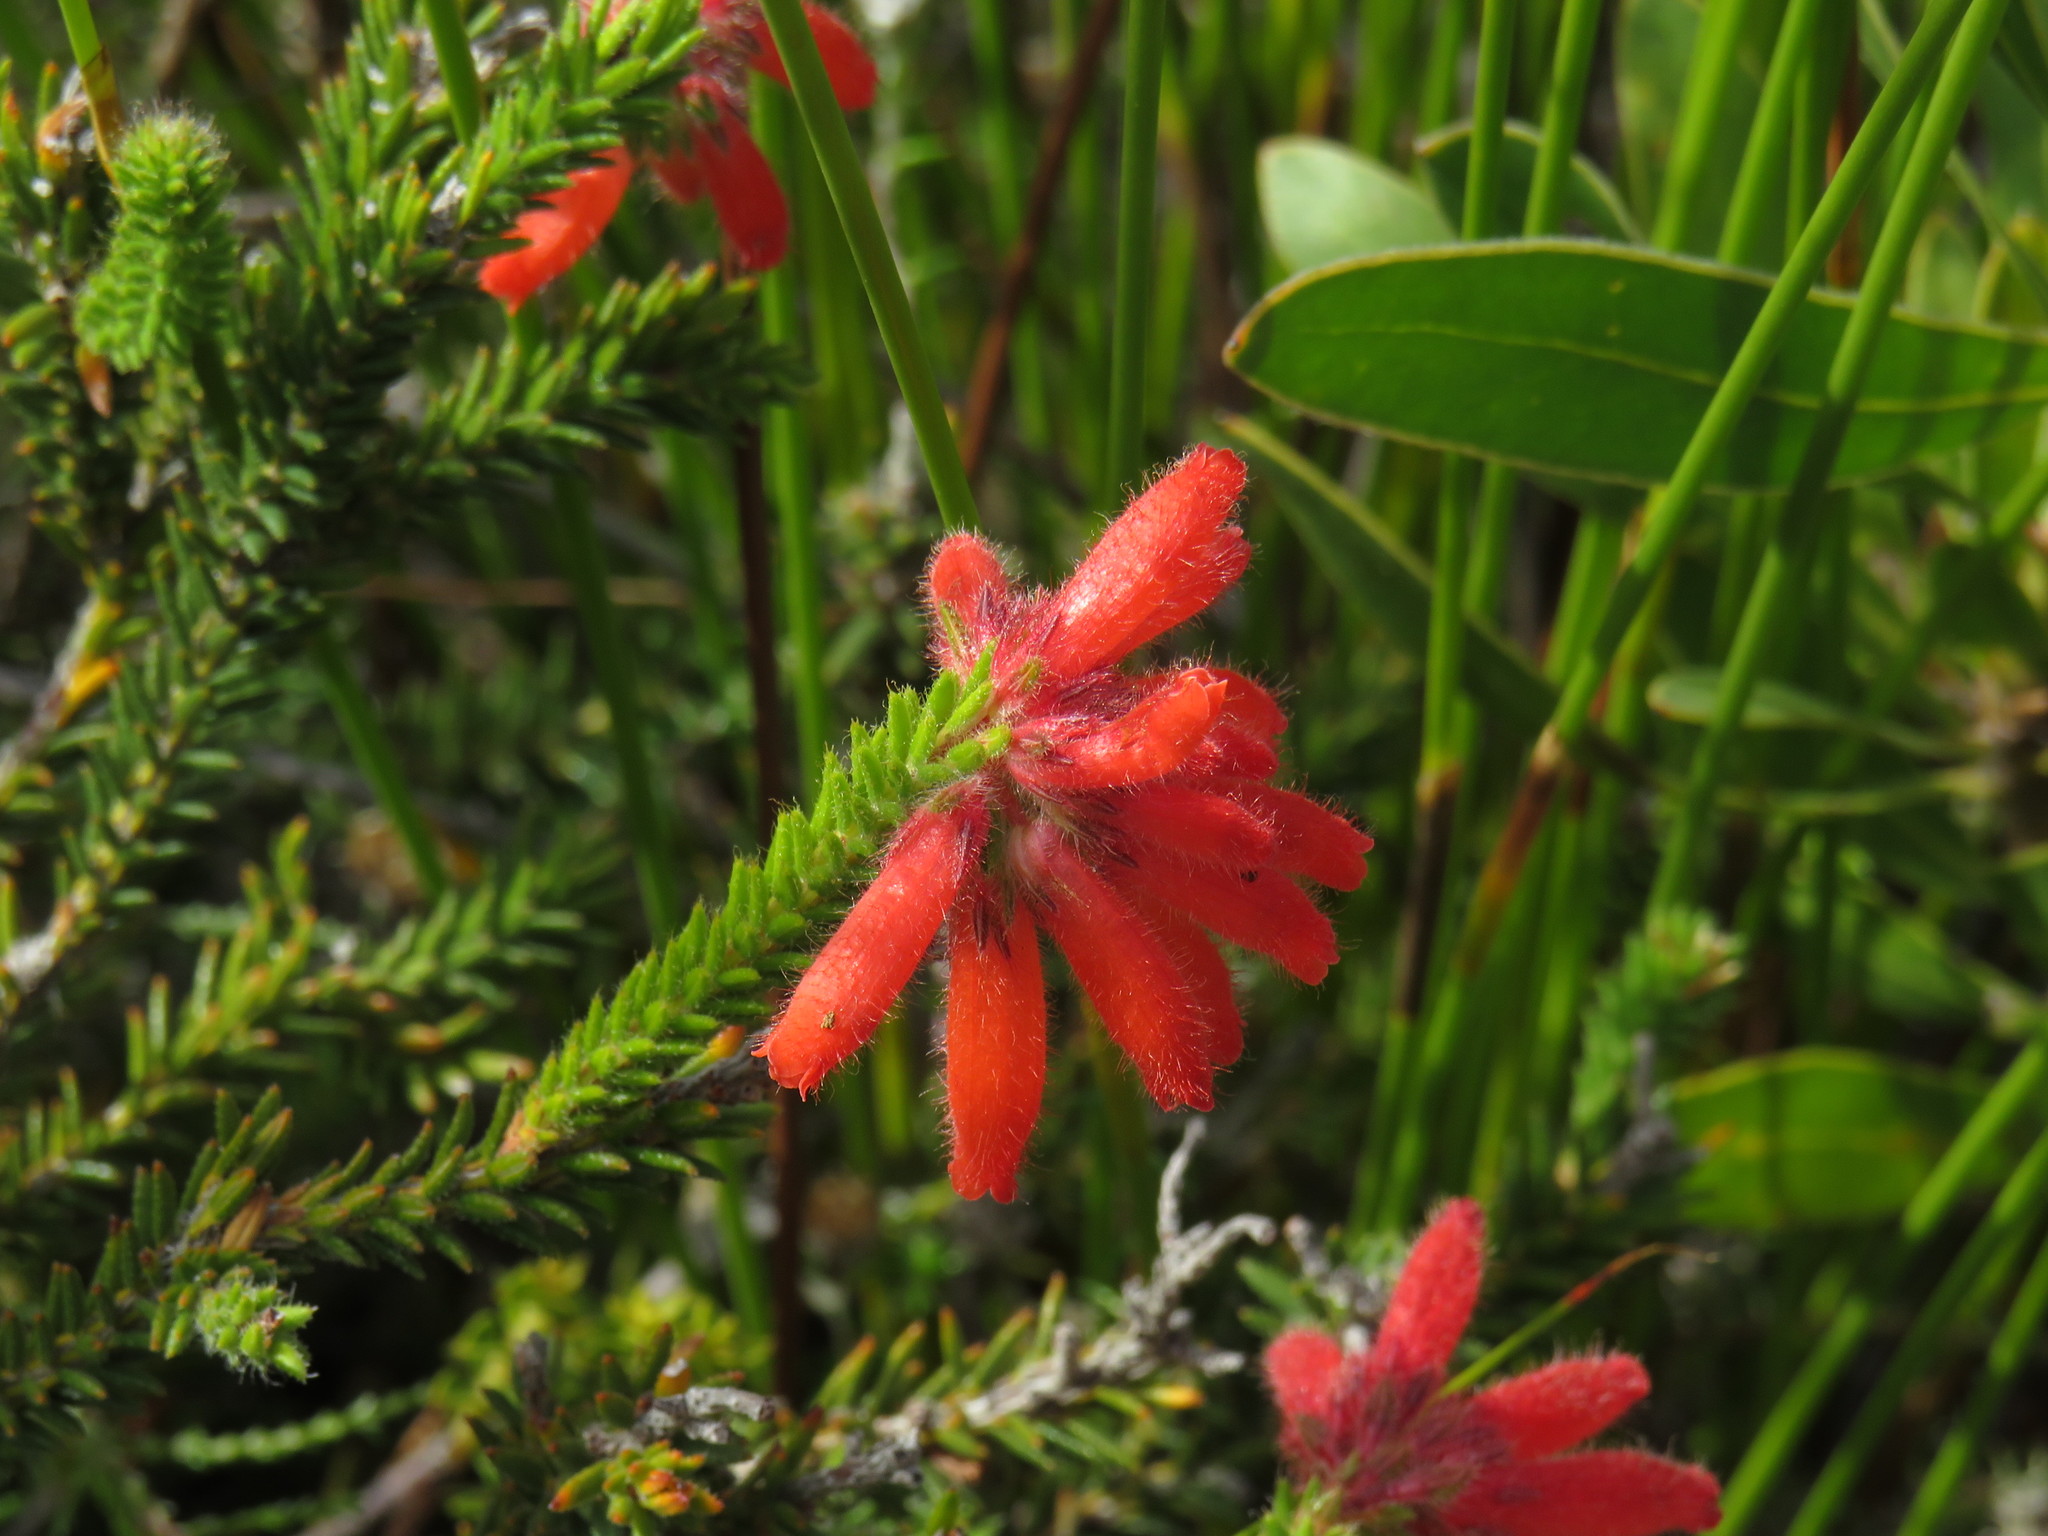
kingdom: Plantae
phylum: Tracheophyta
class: Magnoliopsida
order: Ericales
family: Ericaceae
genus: Erica
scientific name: Erica cerinthoides
